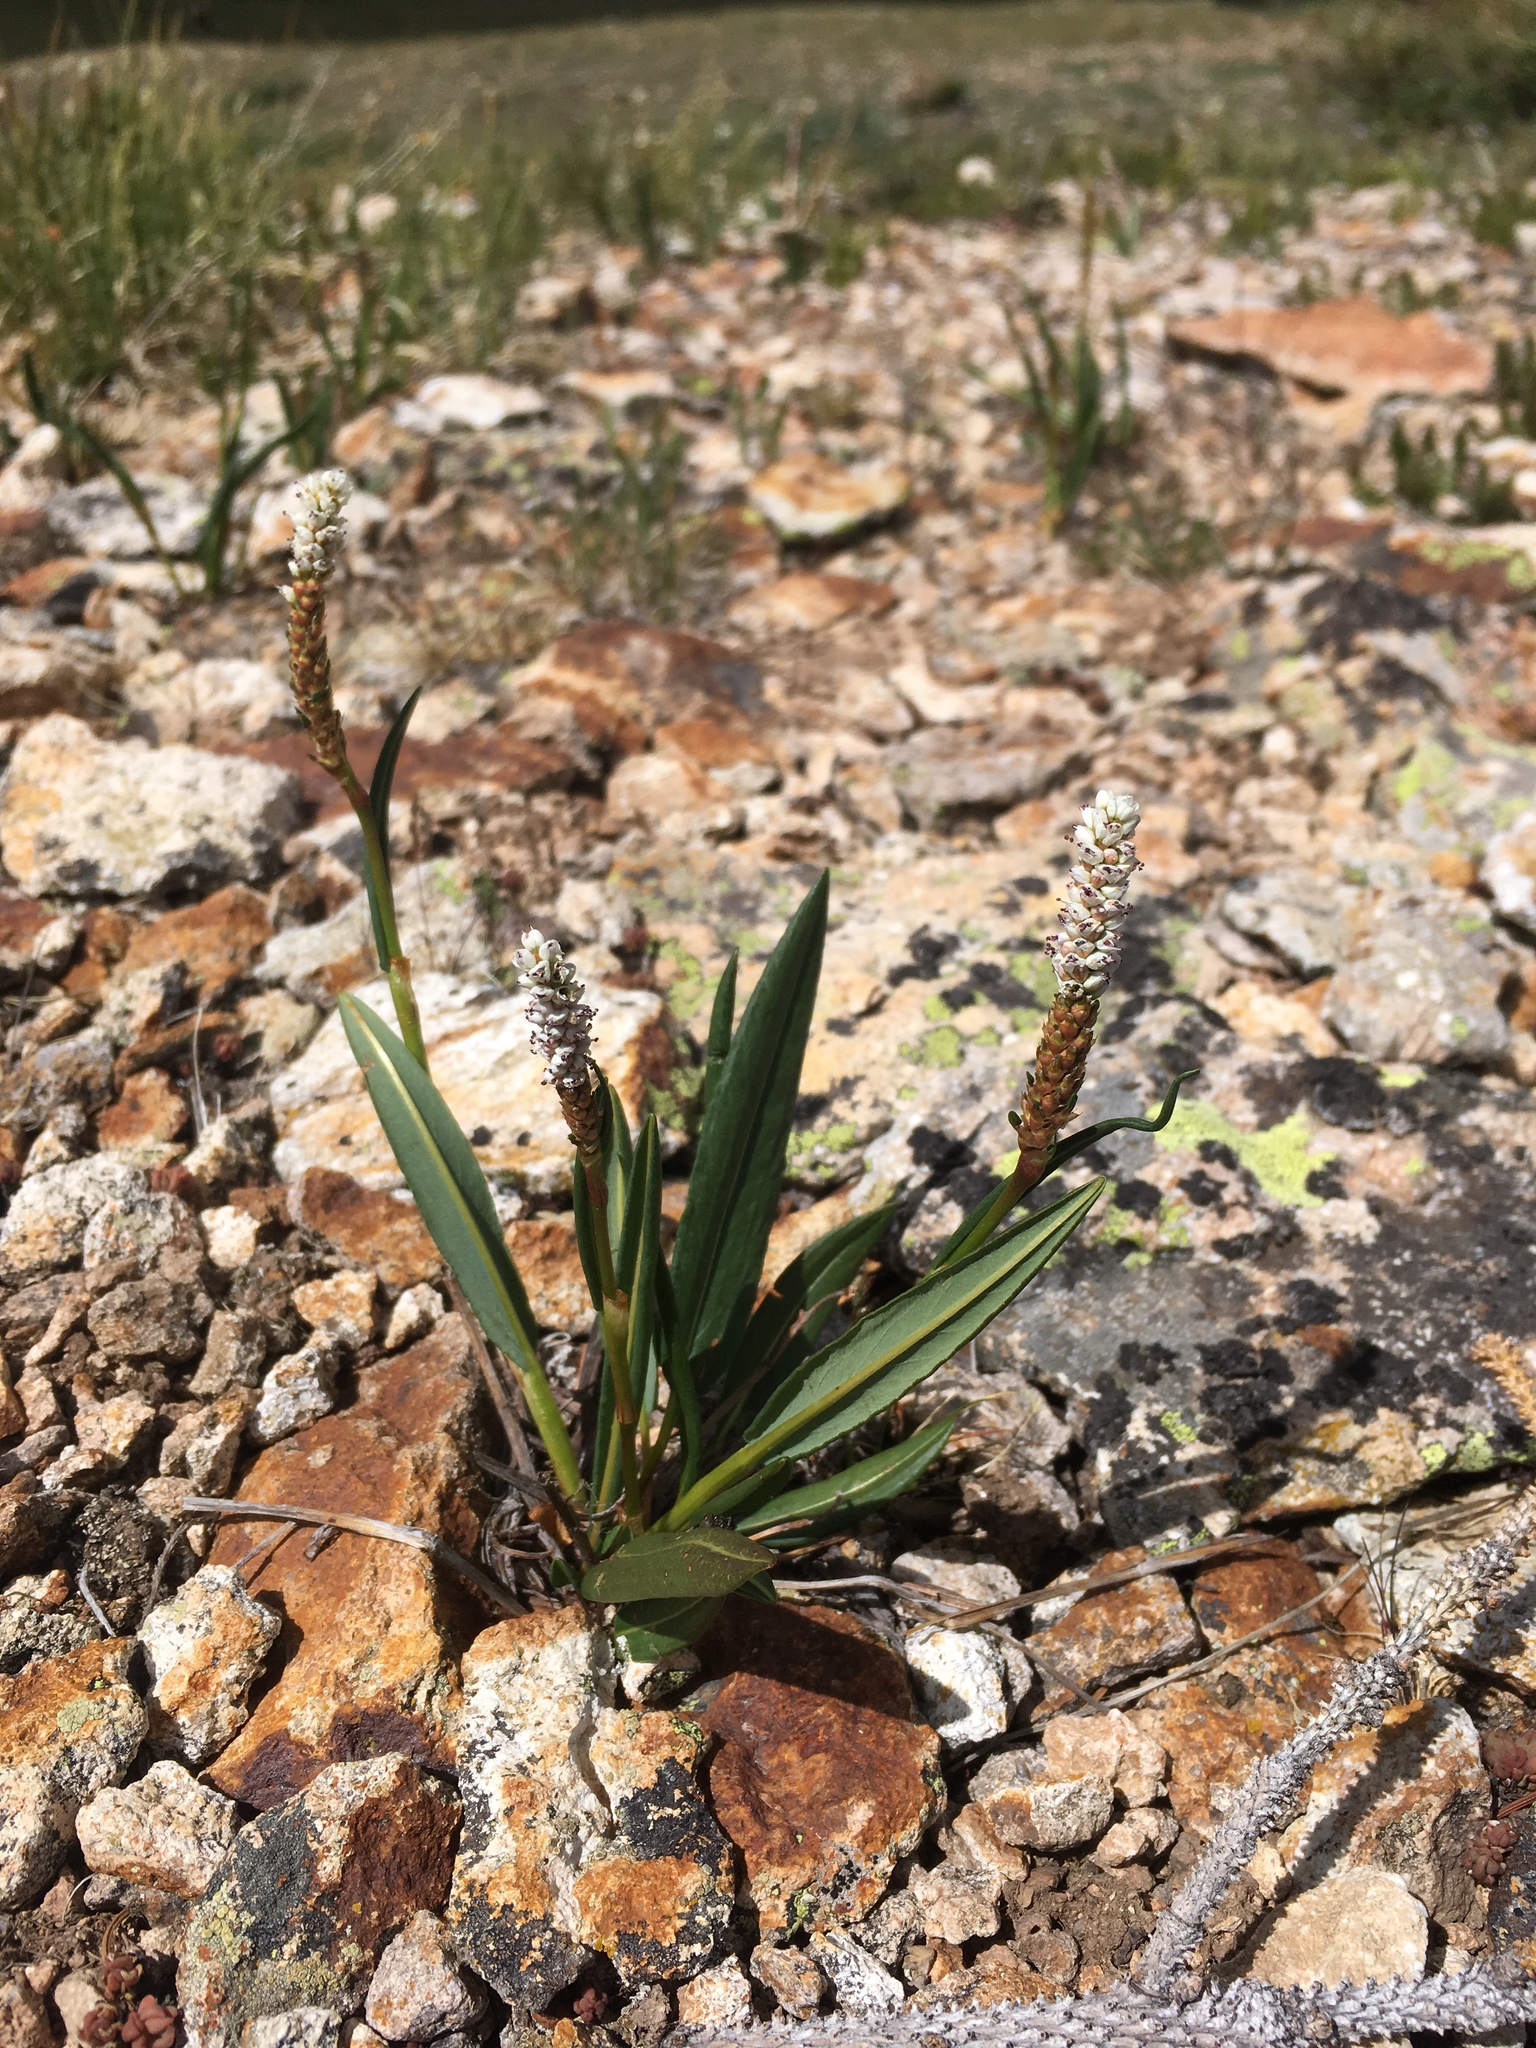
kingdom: Plantae
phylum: Tracheophyta
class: Magnoliopsida
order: Caryophyllales
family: Polygonaceae
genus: Bistorta
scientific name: Bistorta vivipara
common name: Alpine bistort
